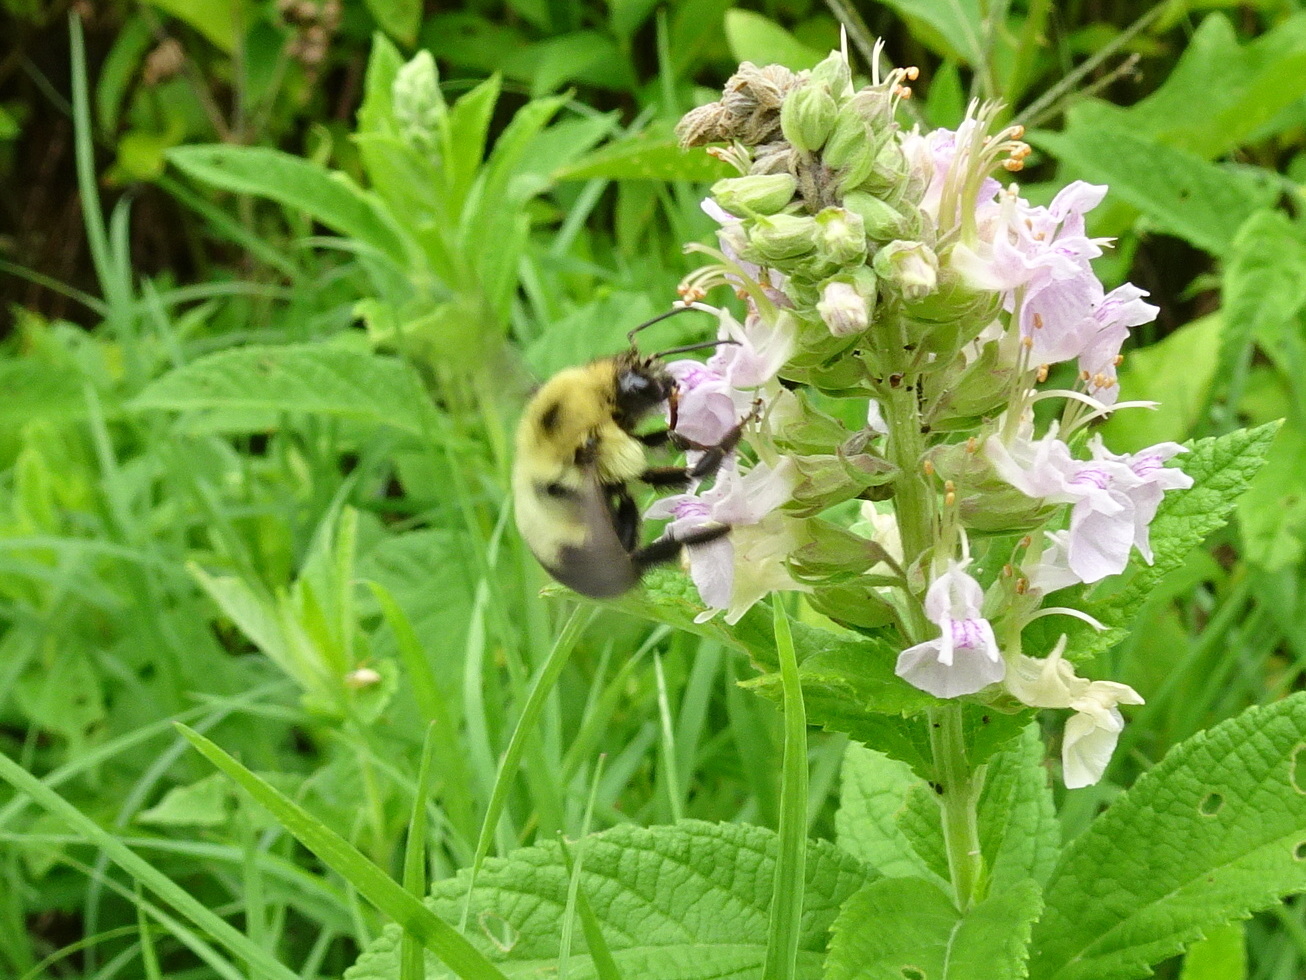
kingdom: Animalia
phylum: Arthropoda
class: Insecta
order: Hymenoptera
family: Apidae
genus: Bombus
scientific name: Bombus bimaculatus
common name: Two-spotted bumble bee
